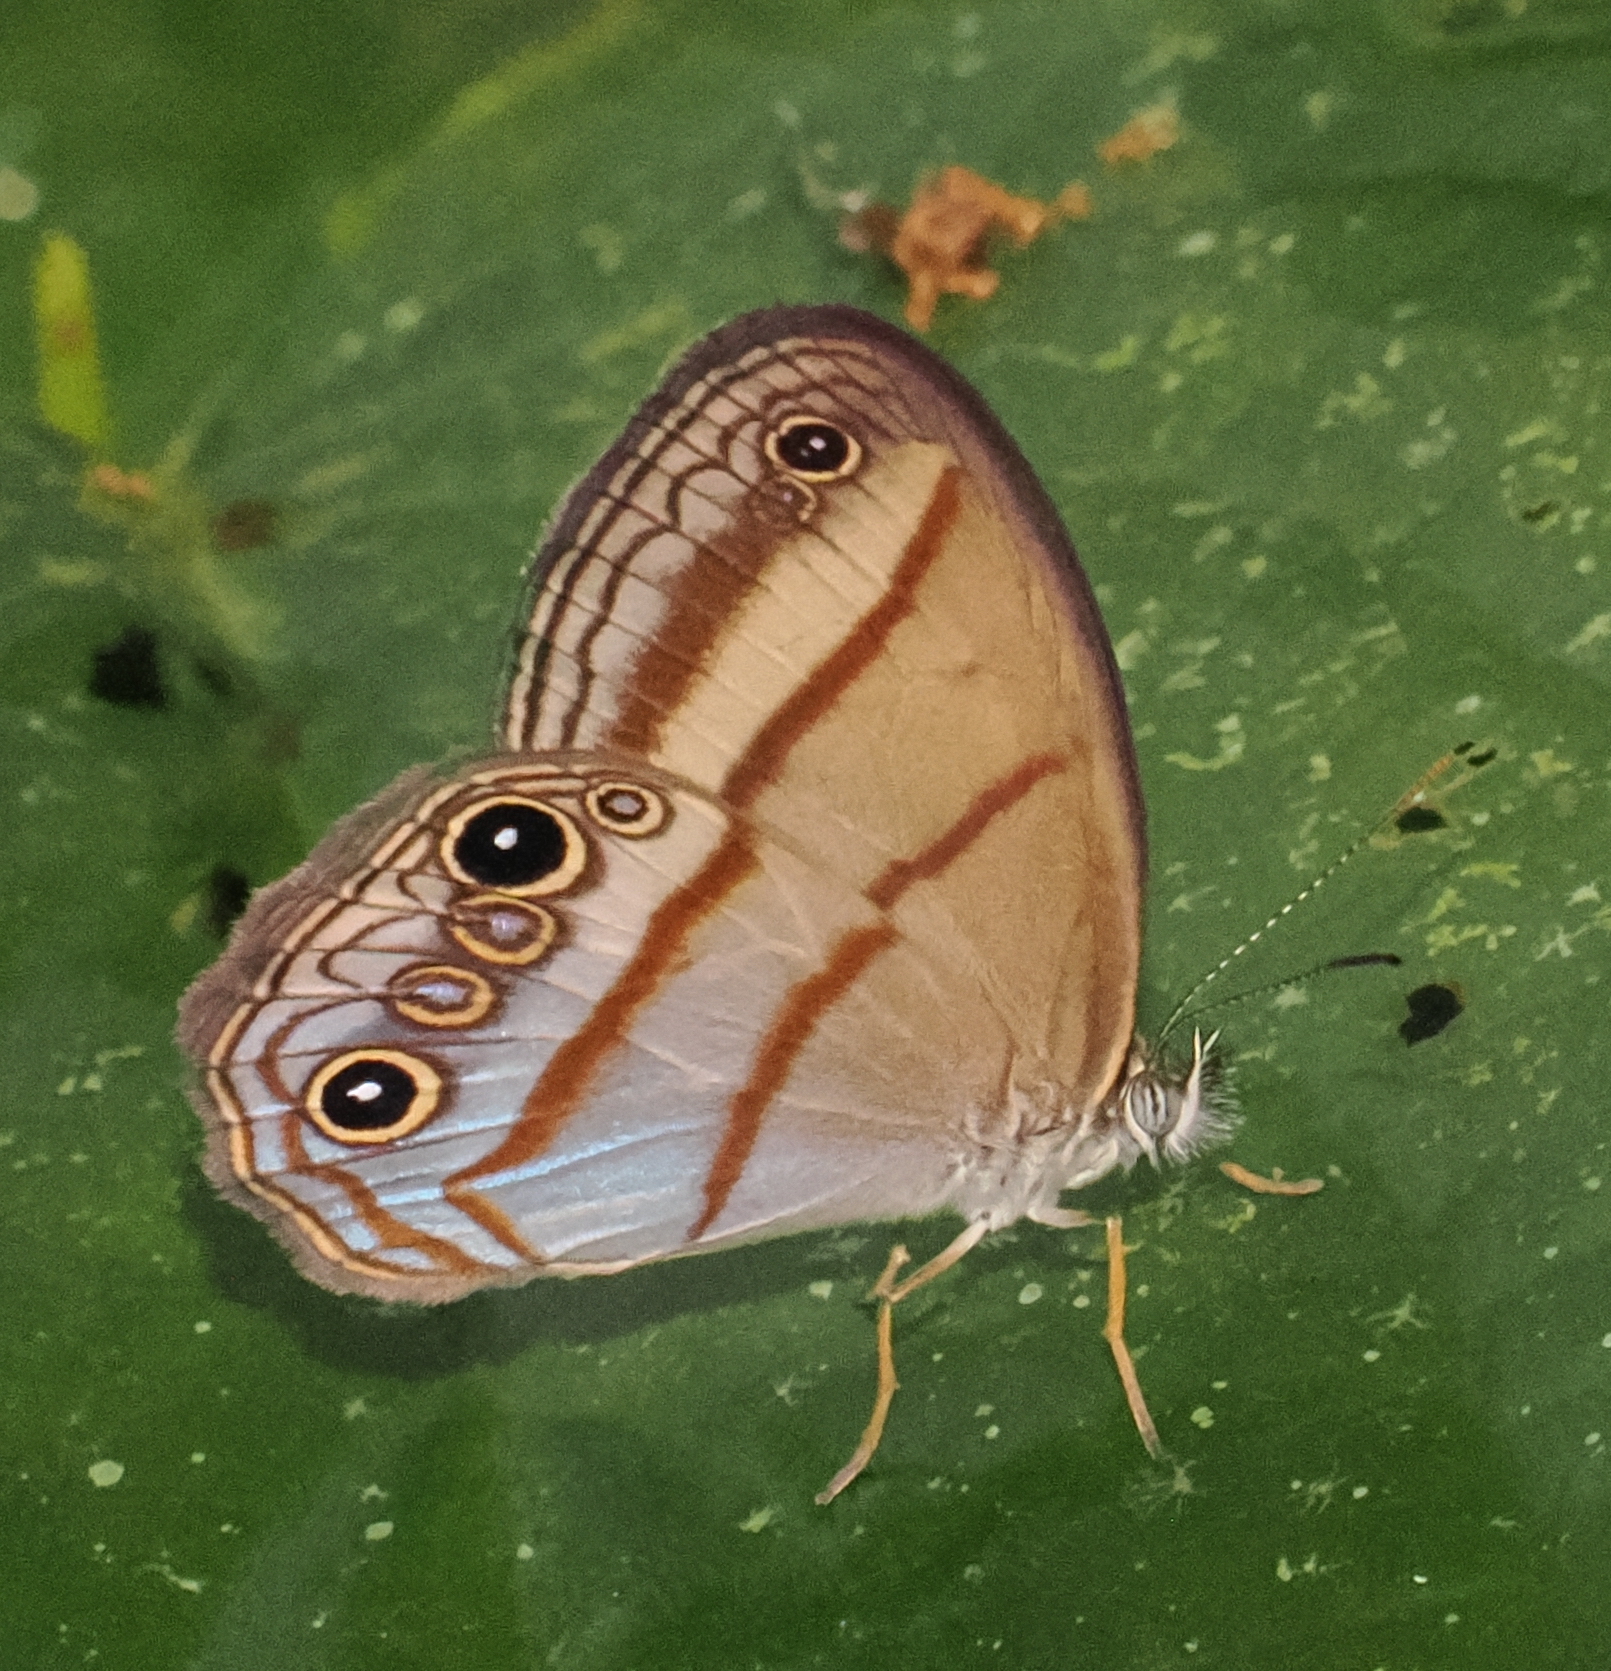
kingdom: Animalia
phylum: Arthropoda
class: Insecta
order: Lepidoptera
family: Nymphalidae
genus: Amiga
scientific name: Amiga arnaca
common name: Blue-topped satyr
